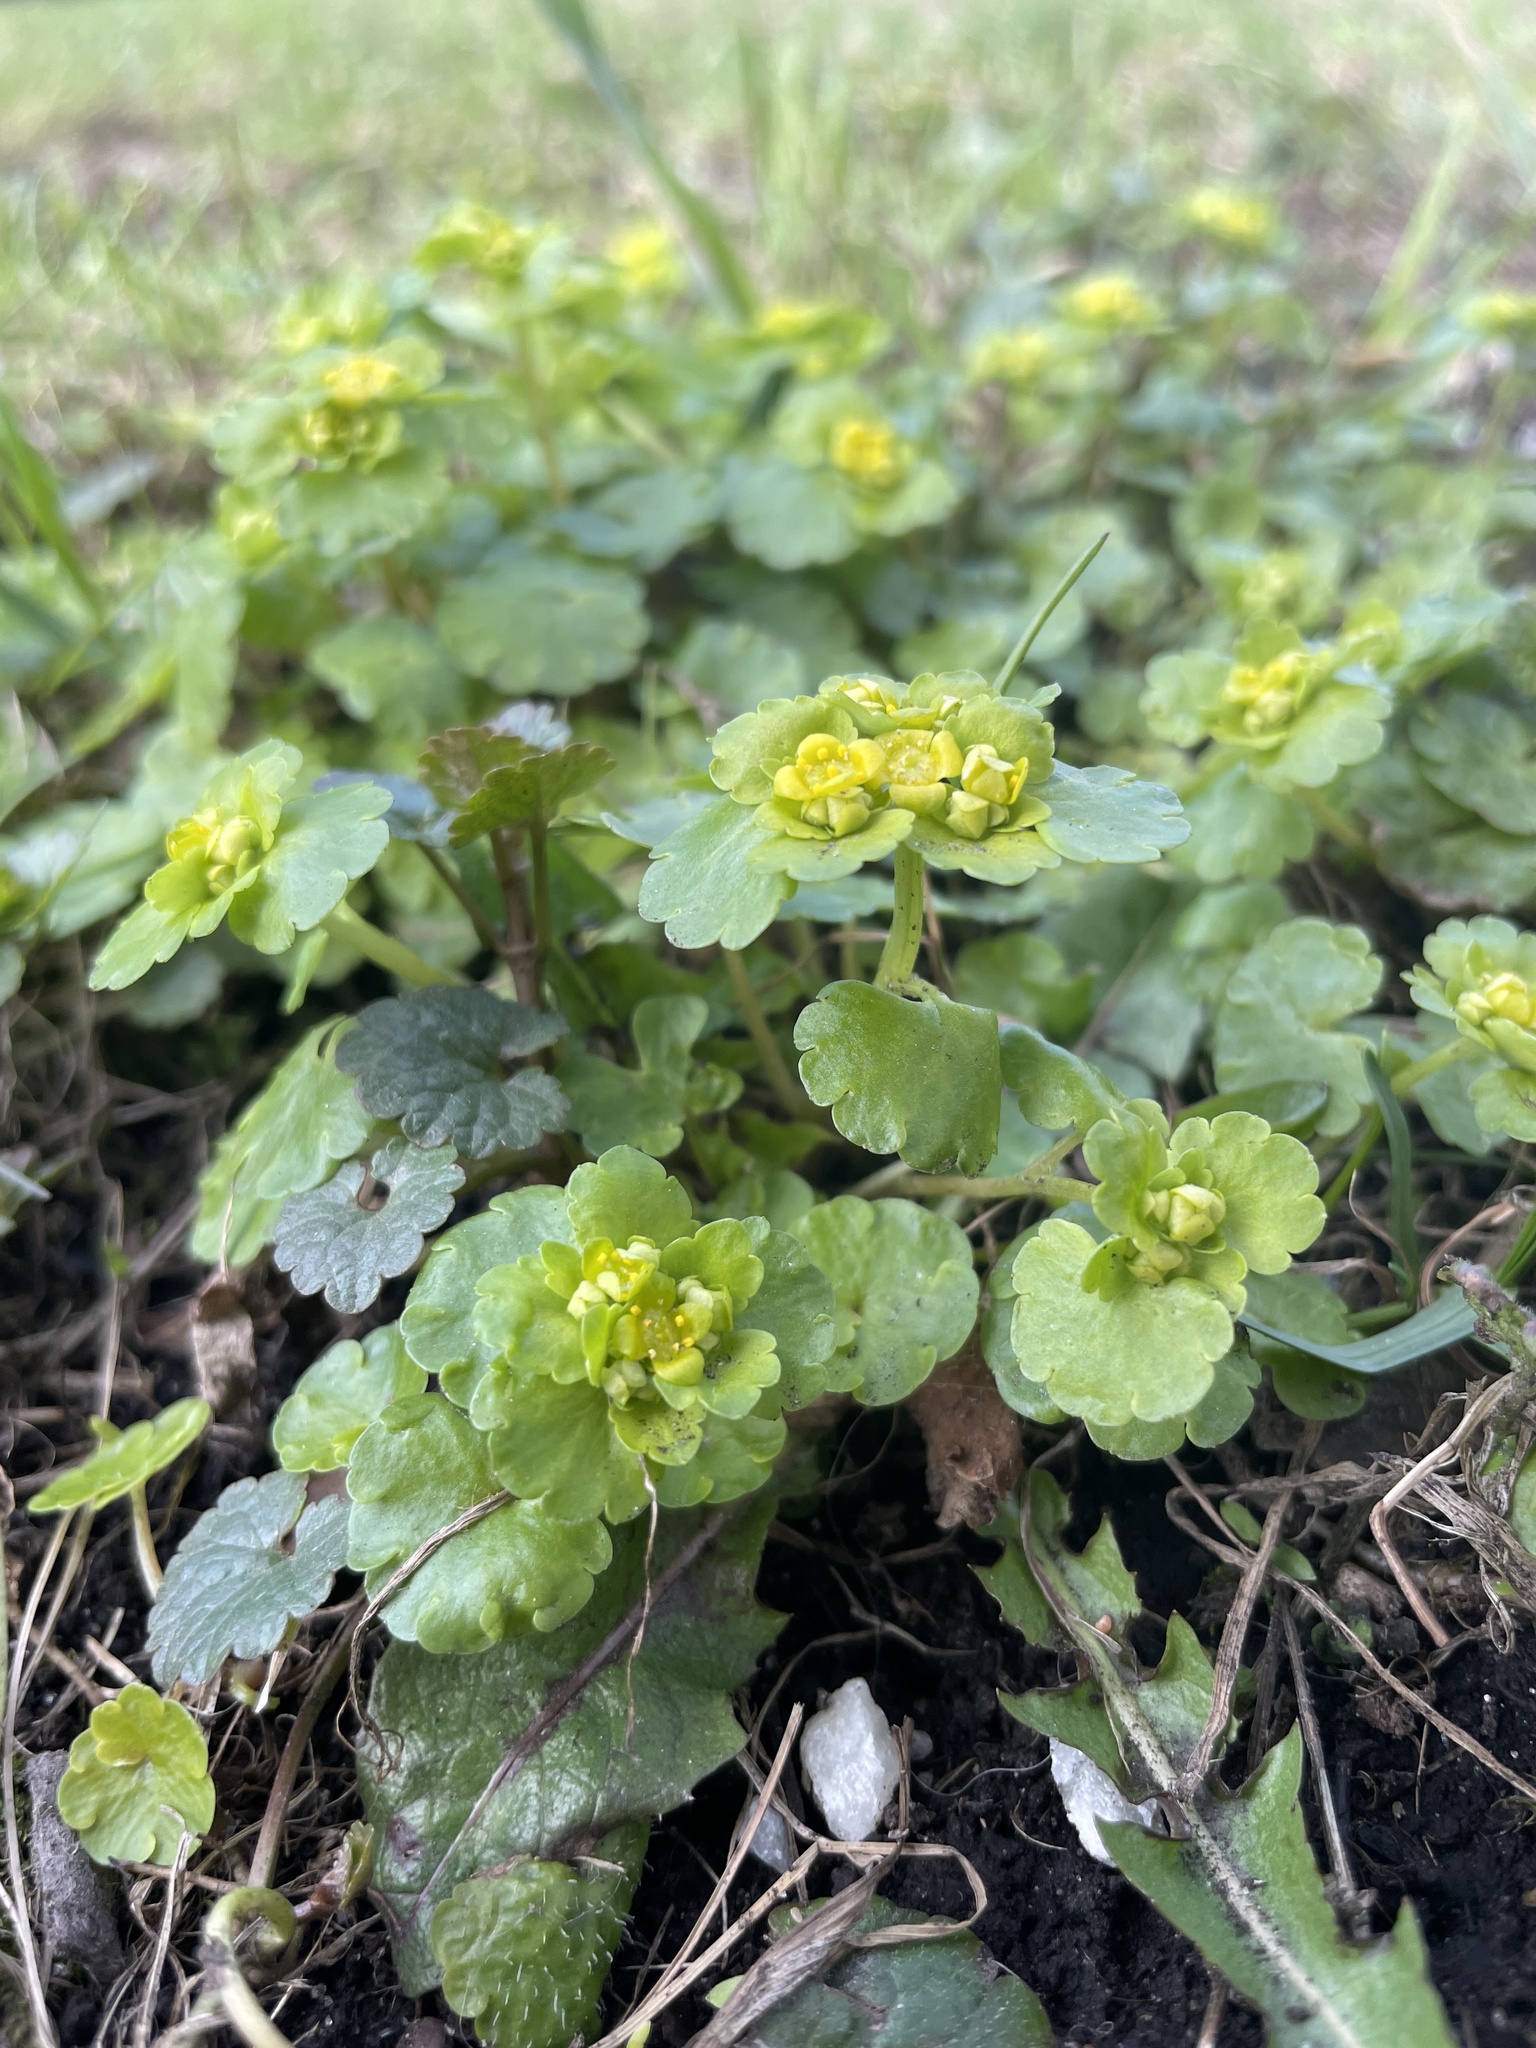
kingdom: Plantae
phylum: Tracheophyta
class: Magnoliopsida
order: Saxifragales
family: Saxifragaceae
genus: Chrysosplenium
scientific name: Chrysosplenium alternifolium
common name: Alternate-leaved golden-saxifrage
